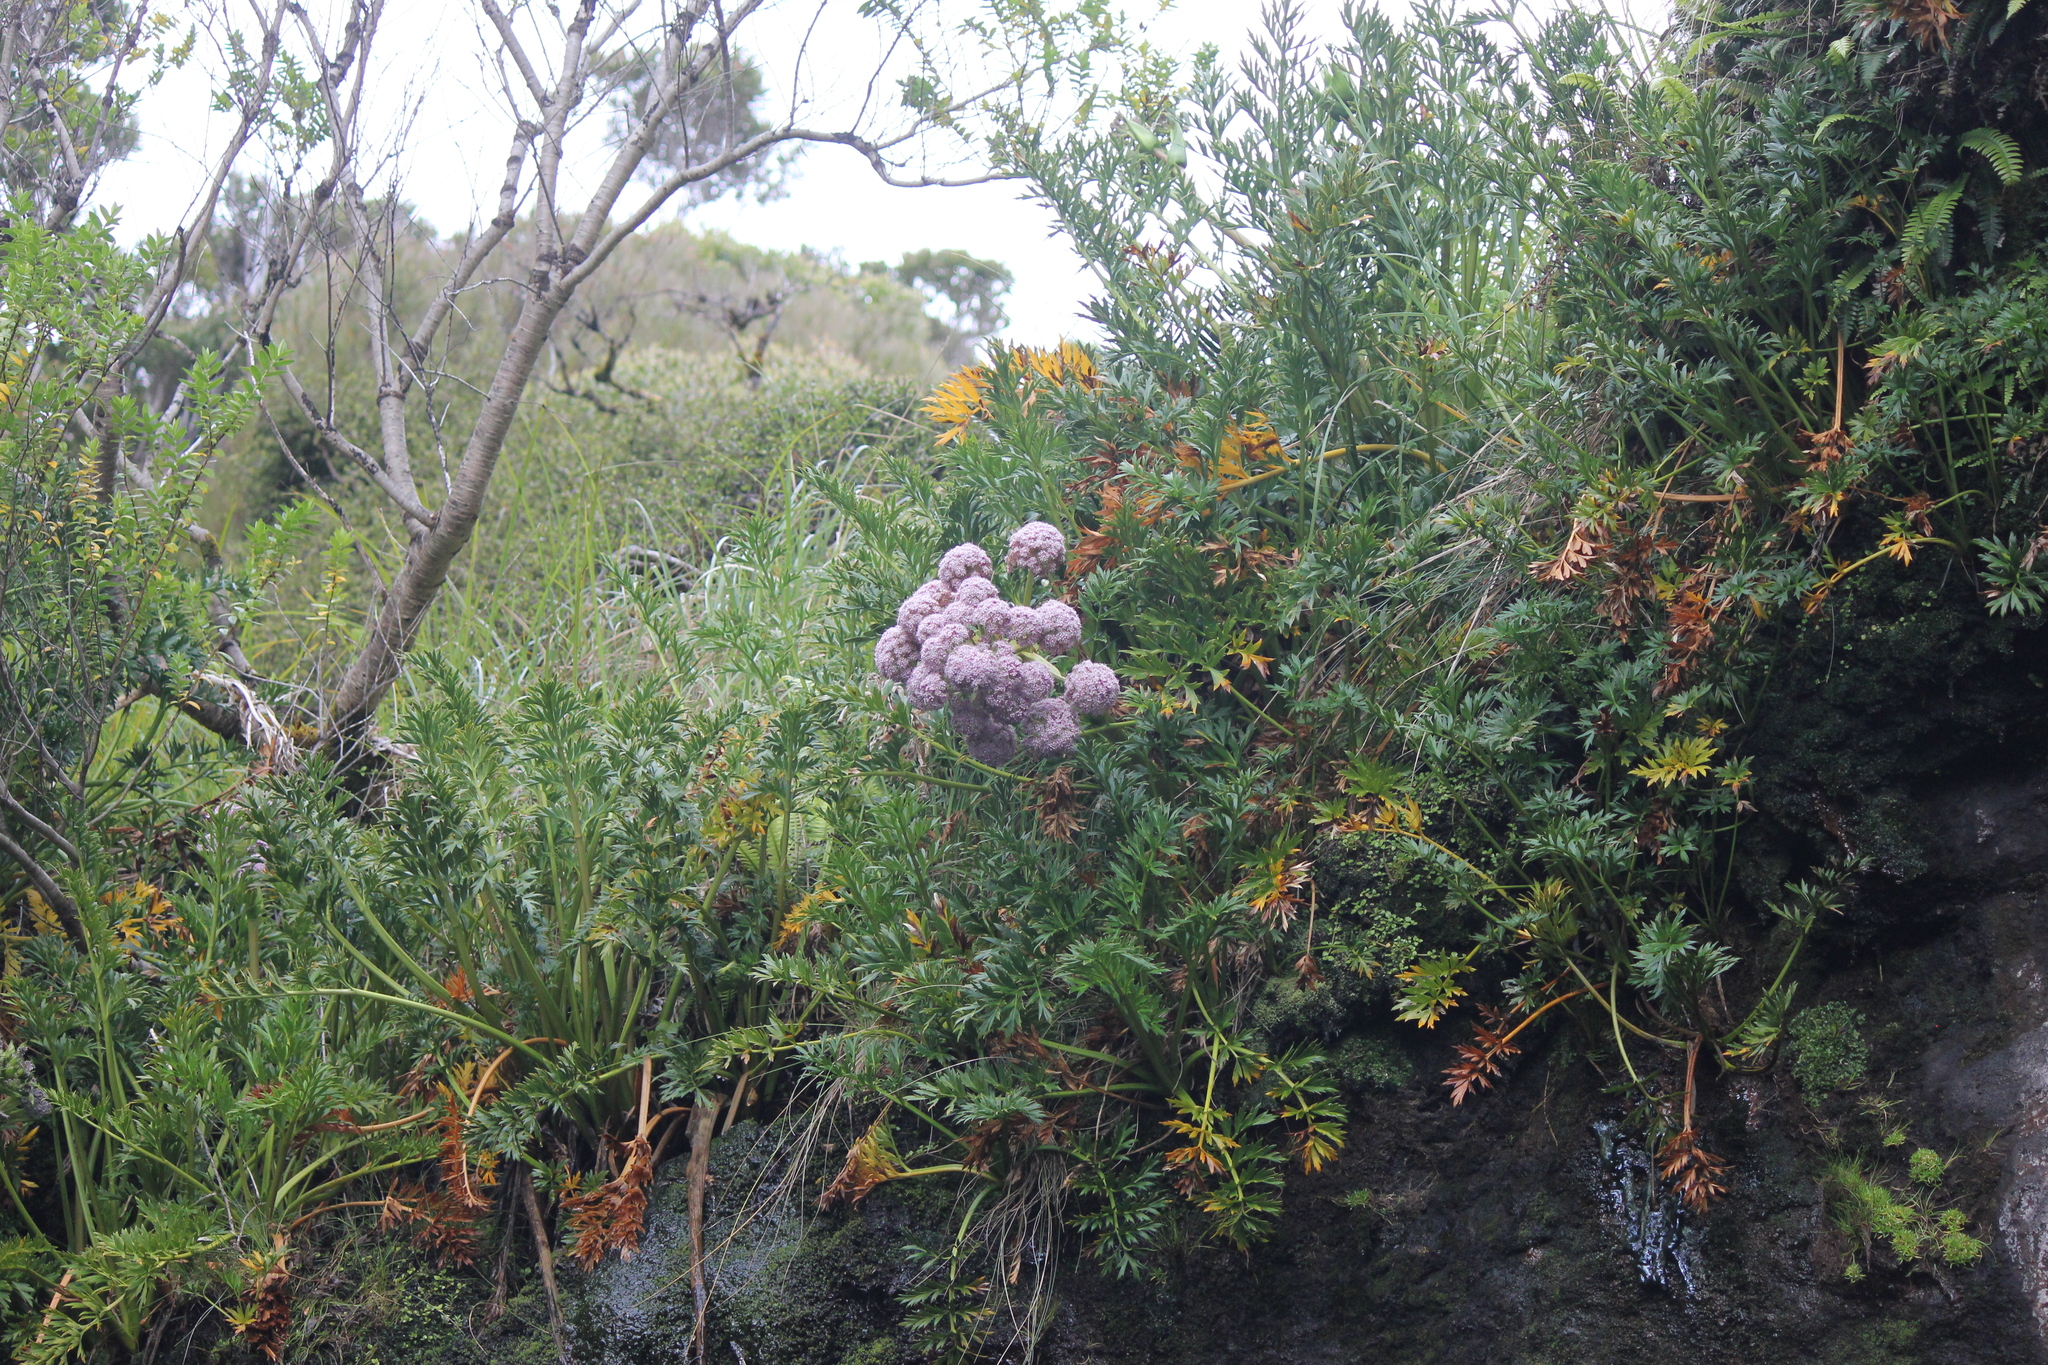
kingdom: Plantae
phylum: Tracheophyta
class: Magnoliopsida
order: Apiales
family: Apiaceae
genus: Anisotome
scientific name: Anisotome latifolia
